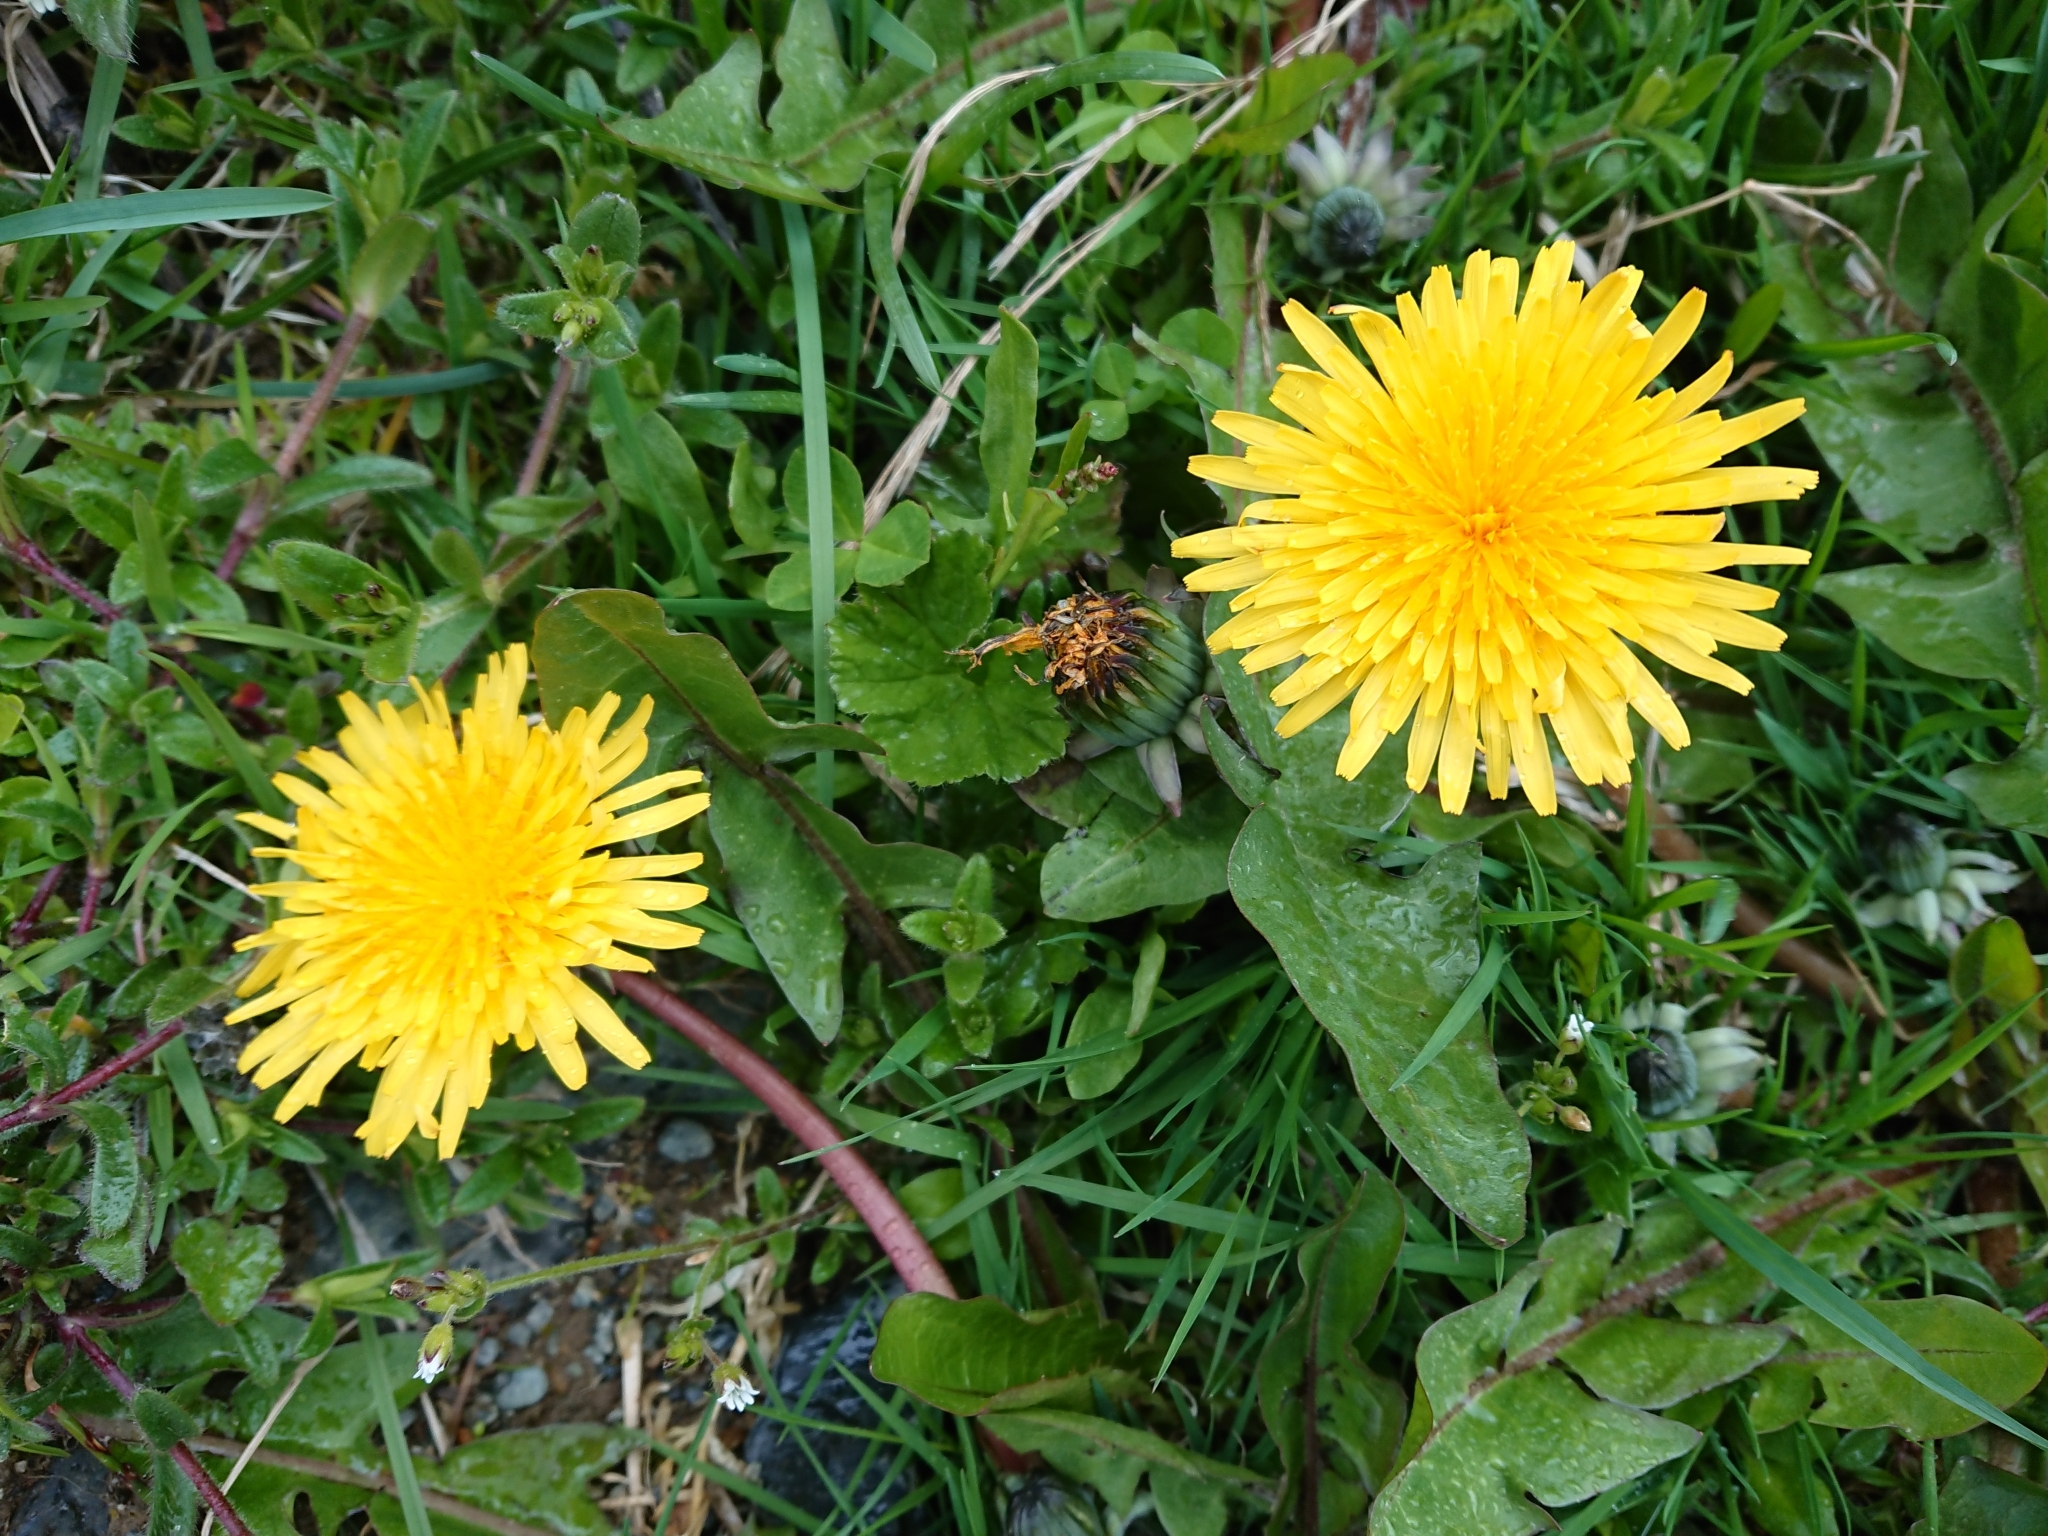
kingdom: Plantae
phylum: Tracheophyta
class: Magnoliopsida
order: Asterales
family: Asteraceae
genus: Taraxacum
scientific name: Taraxacum officinale
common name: Common dandelion
